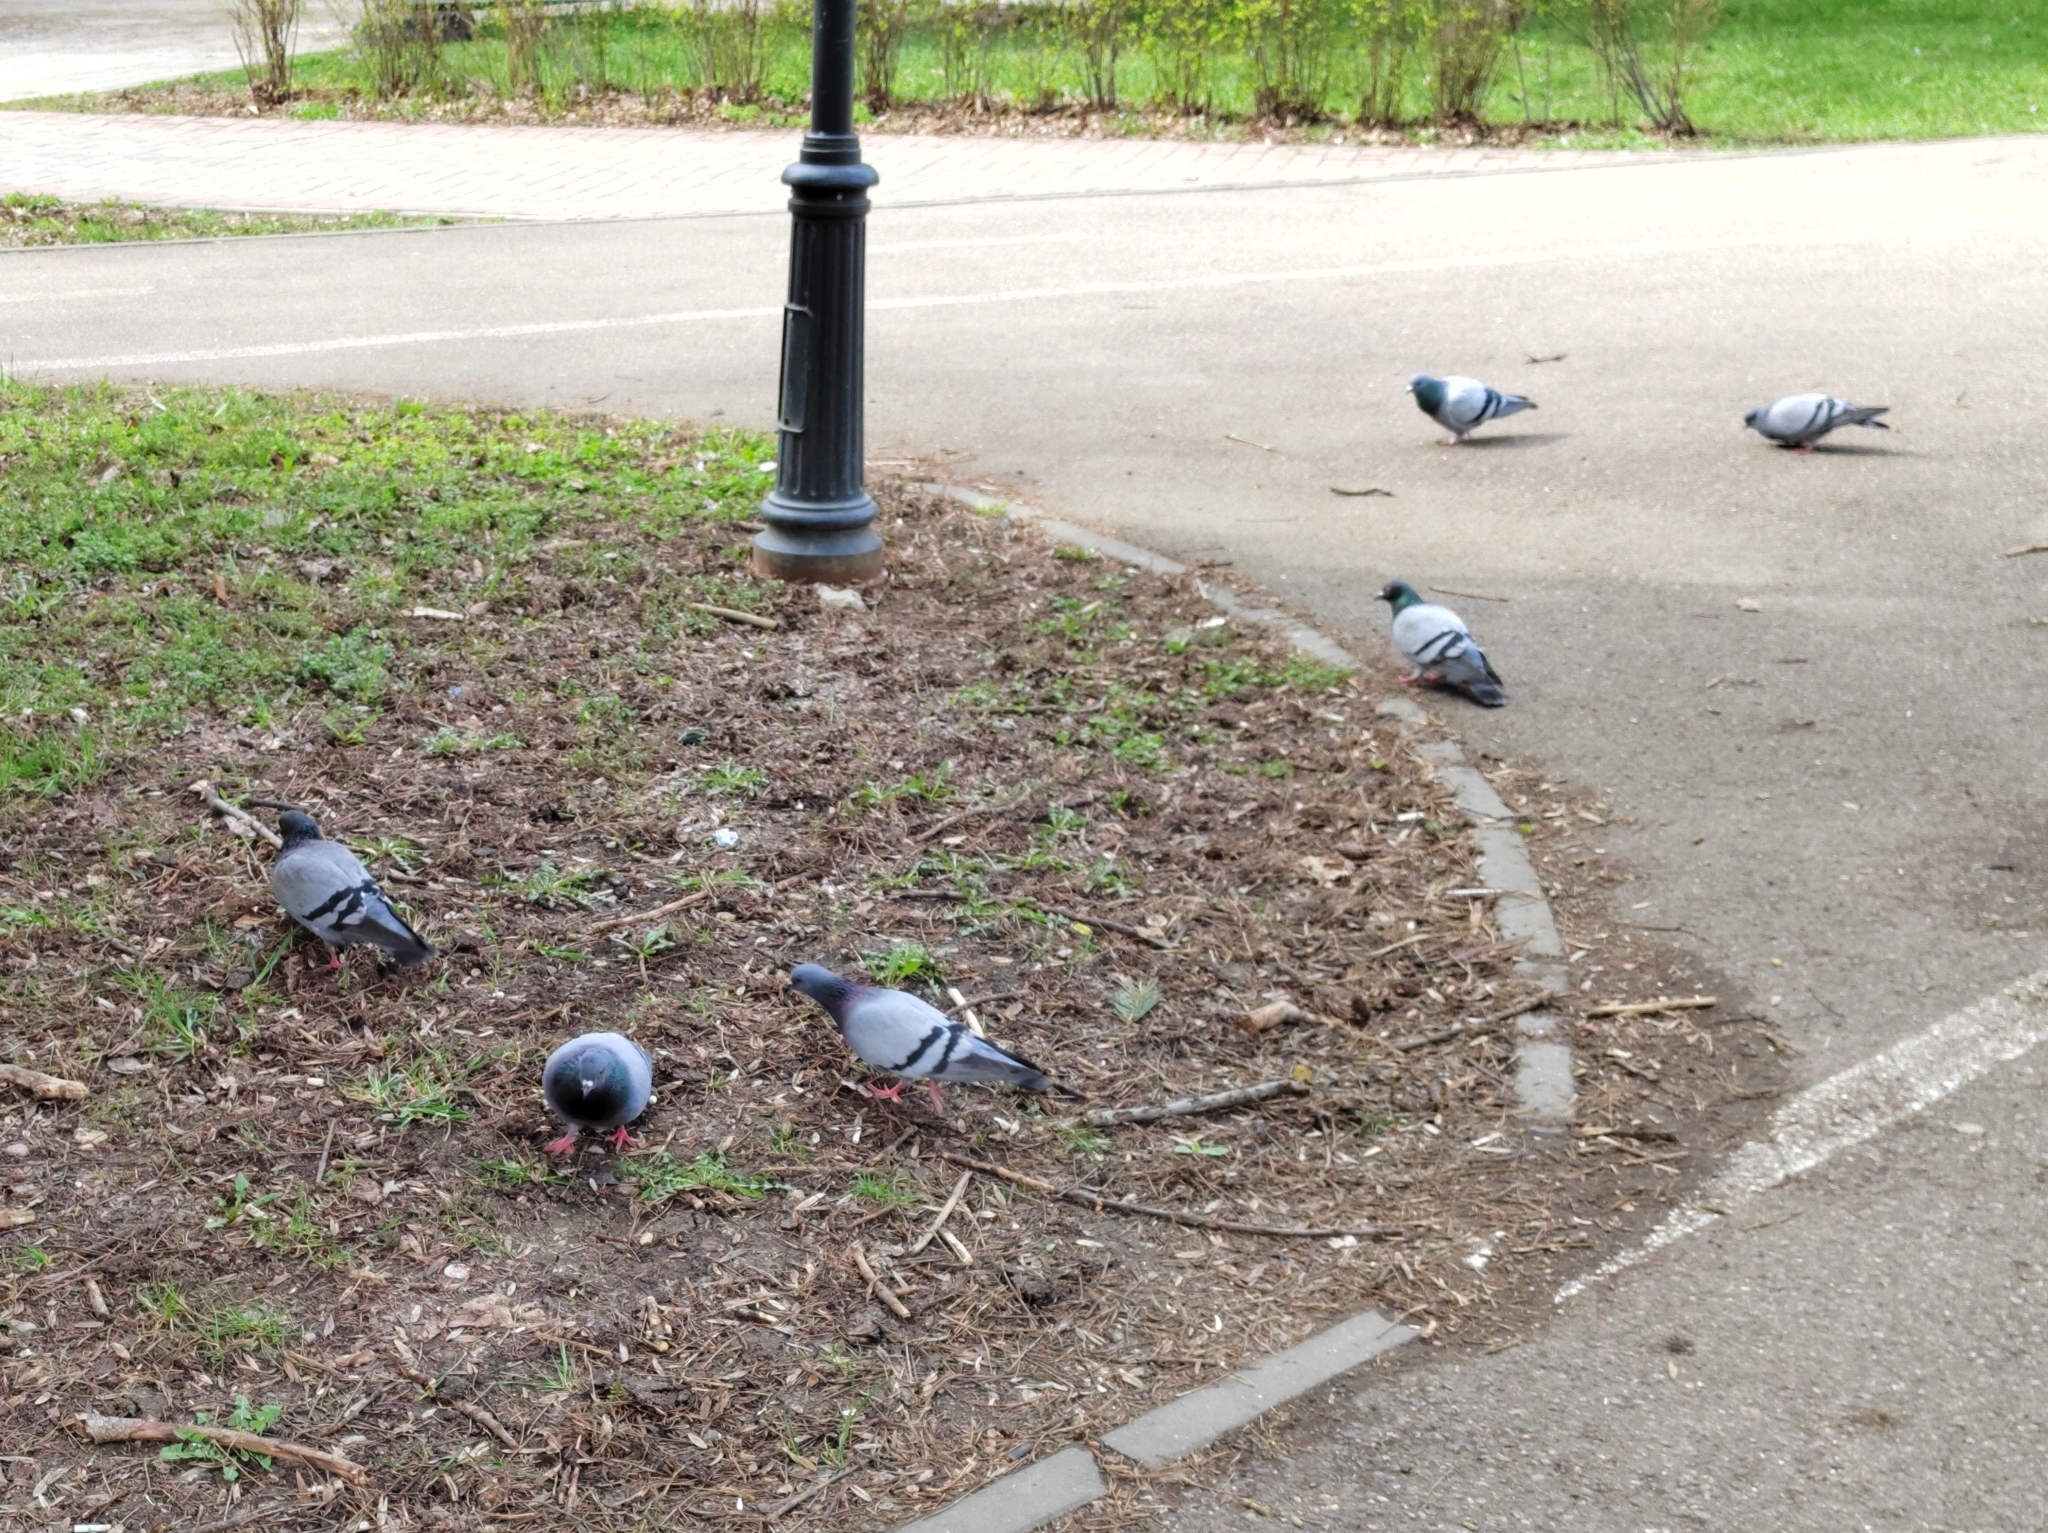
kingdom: Animalia
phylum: Chordata
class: Aves
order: Columbiformes
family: Columbidae
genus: Columba
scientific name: Columba livia
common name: Rock pigeon
